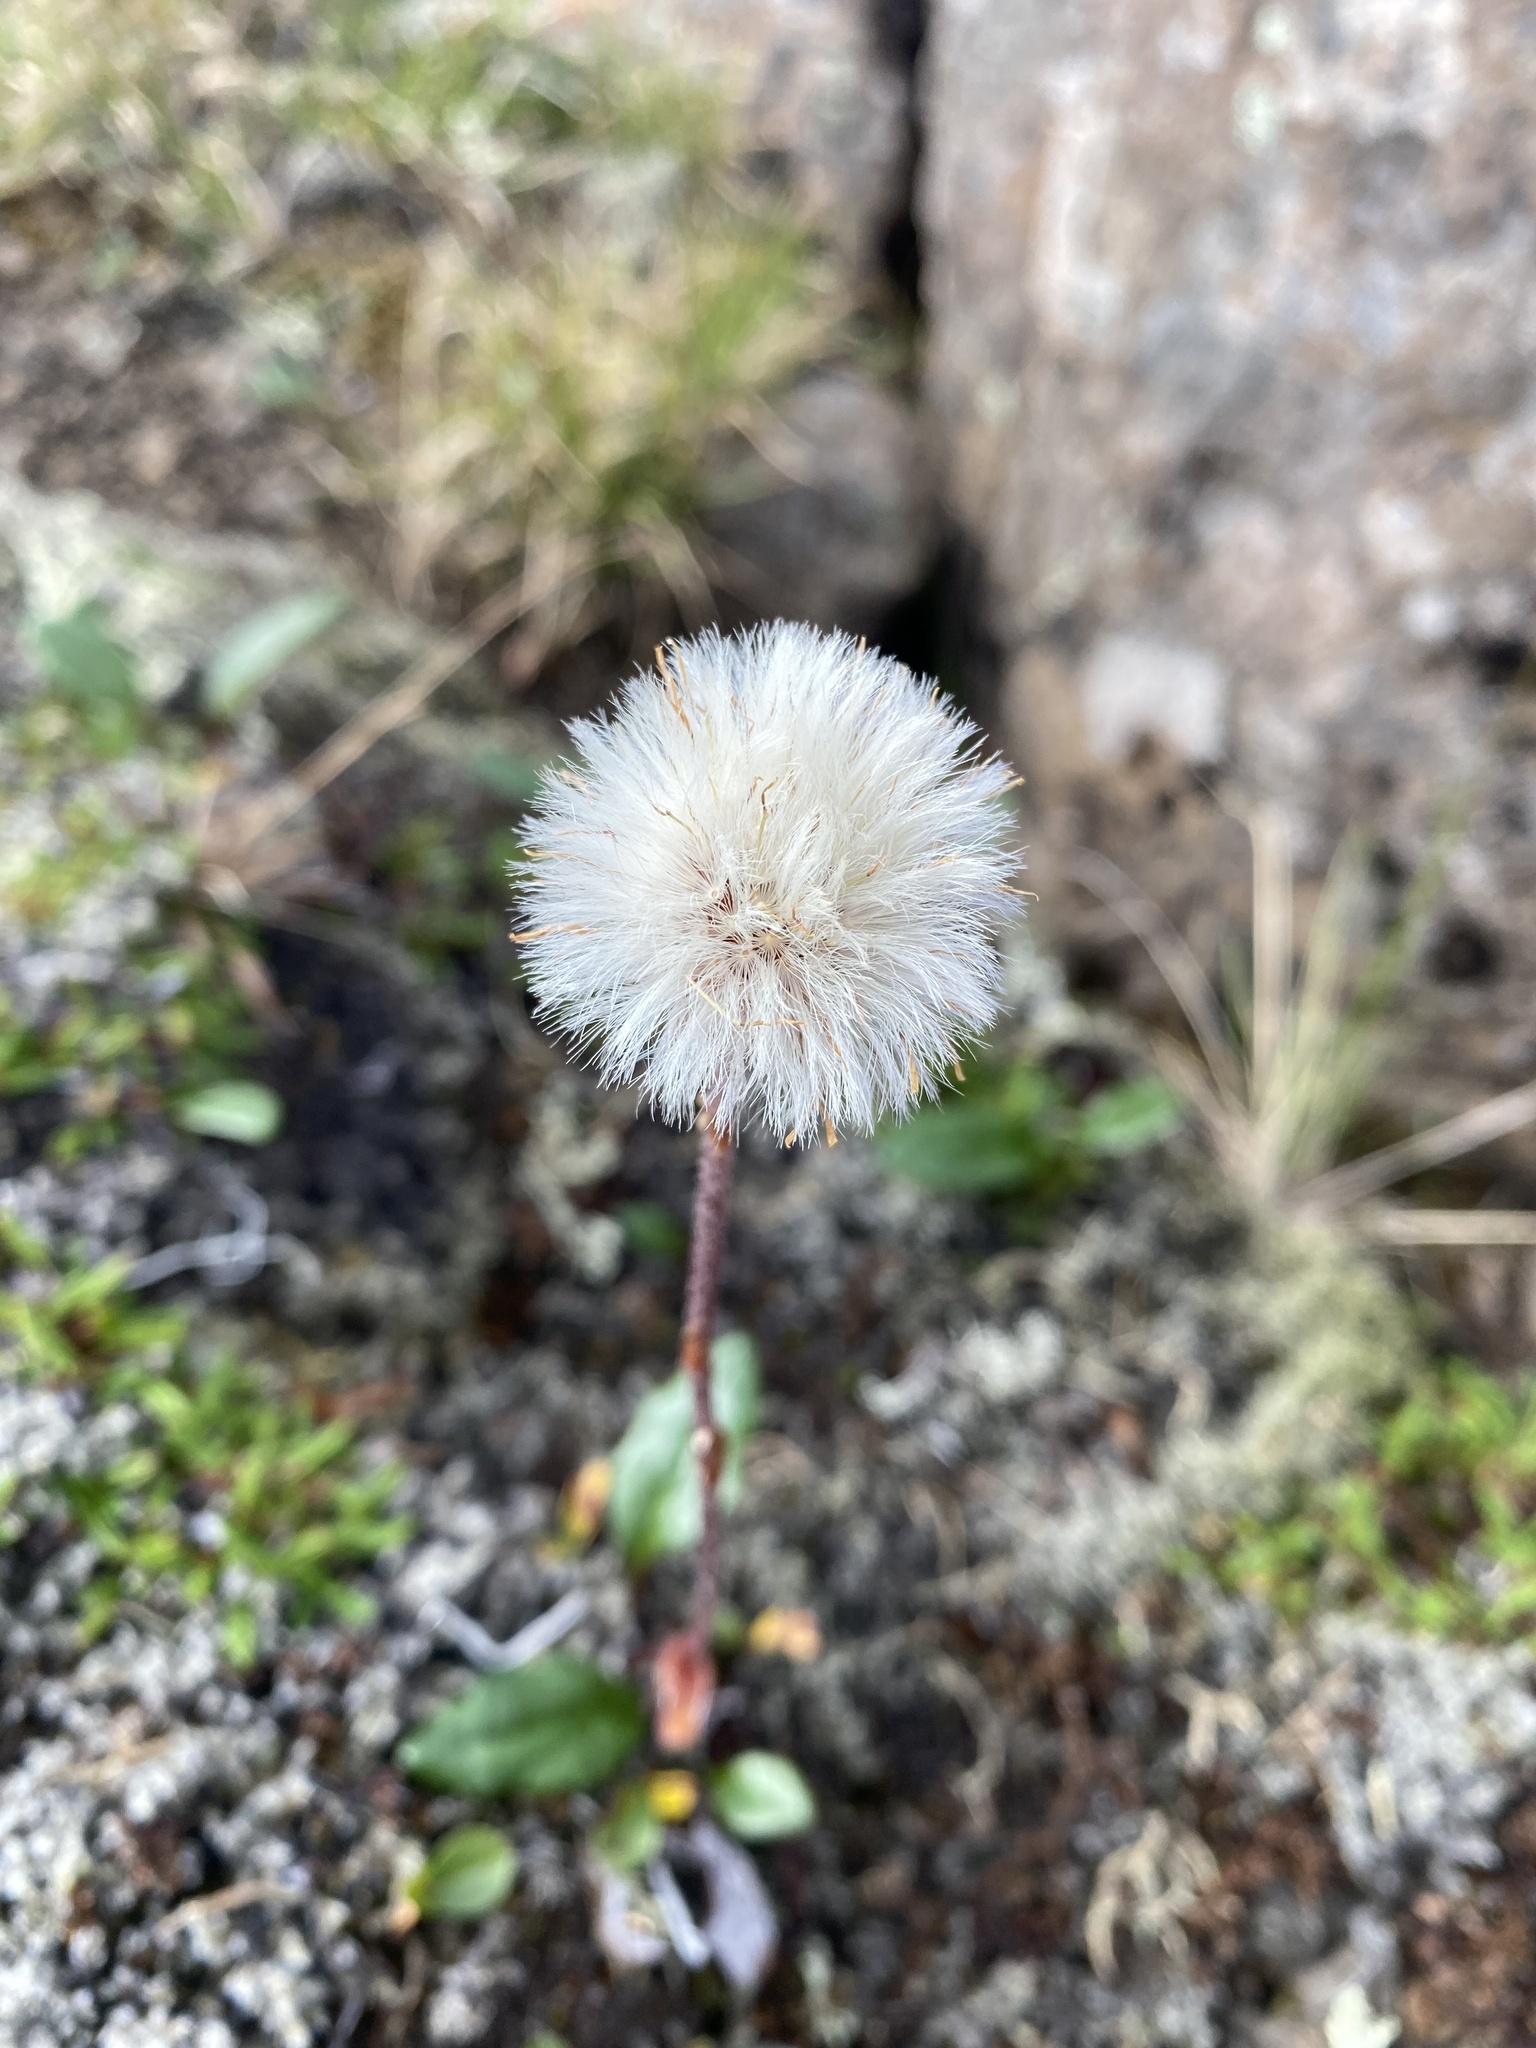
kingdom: Plantae
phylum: Tracheophyta
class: Magnoliopsida
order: Asterales
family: Asteraceae
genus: Endocellion
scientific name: Endocellion sibiricum
